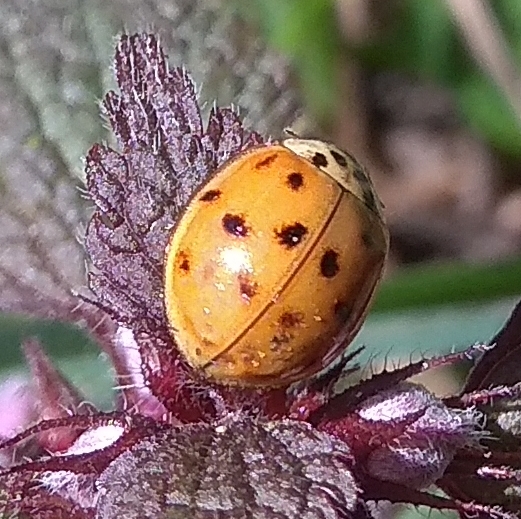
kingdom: Animalia
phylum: Arthropoda
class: Insecta
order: Coleoptera
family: Coccinellidae
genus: Harmonia
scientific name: Harmonia axyridis
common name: Harlequin ladybird
